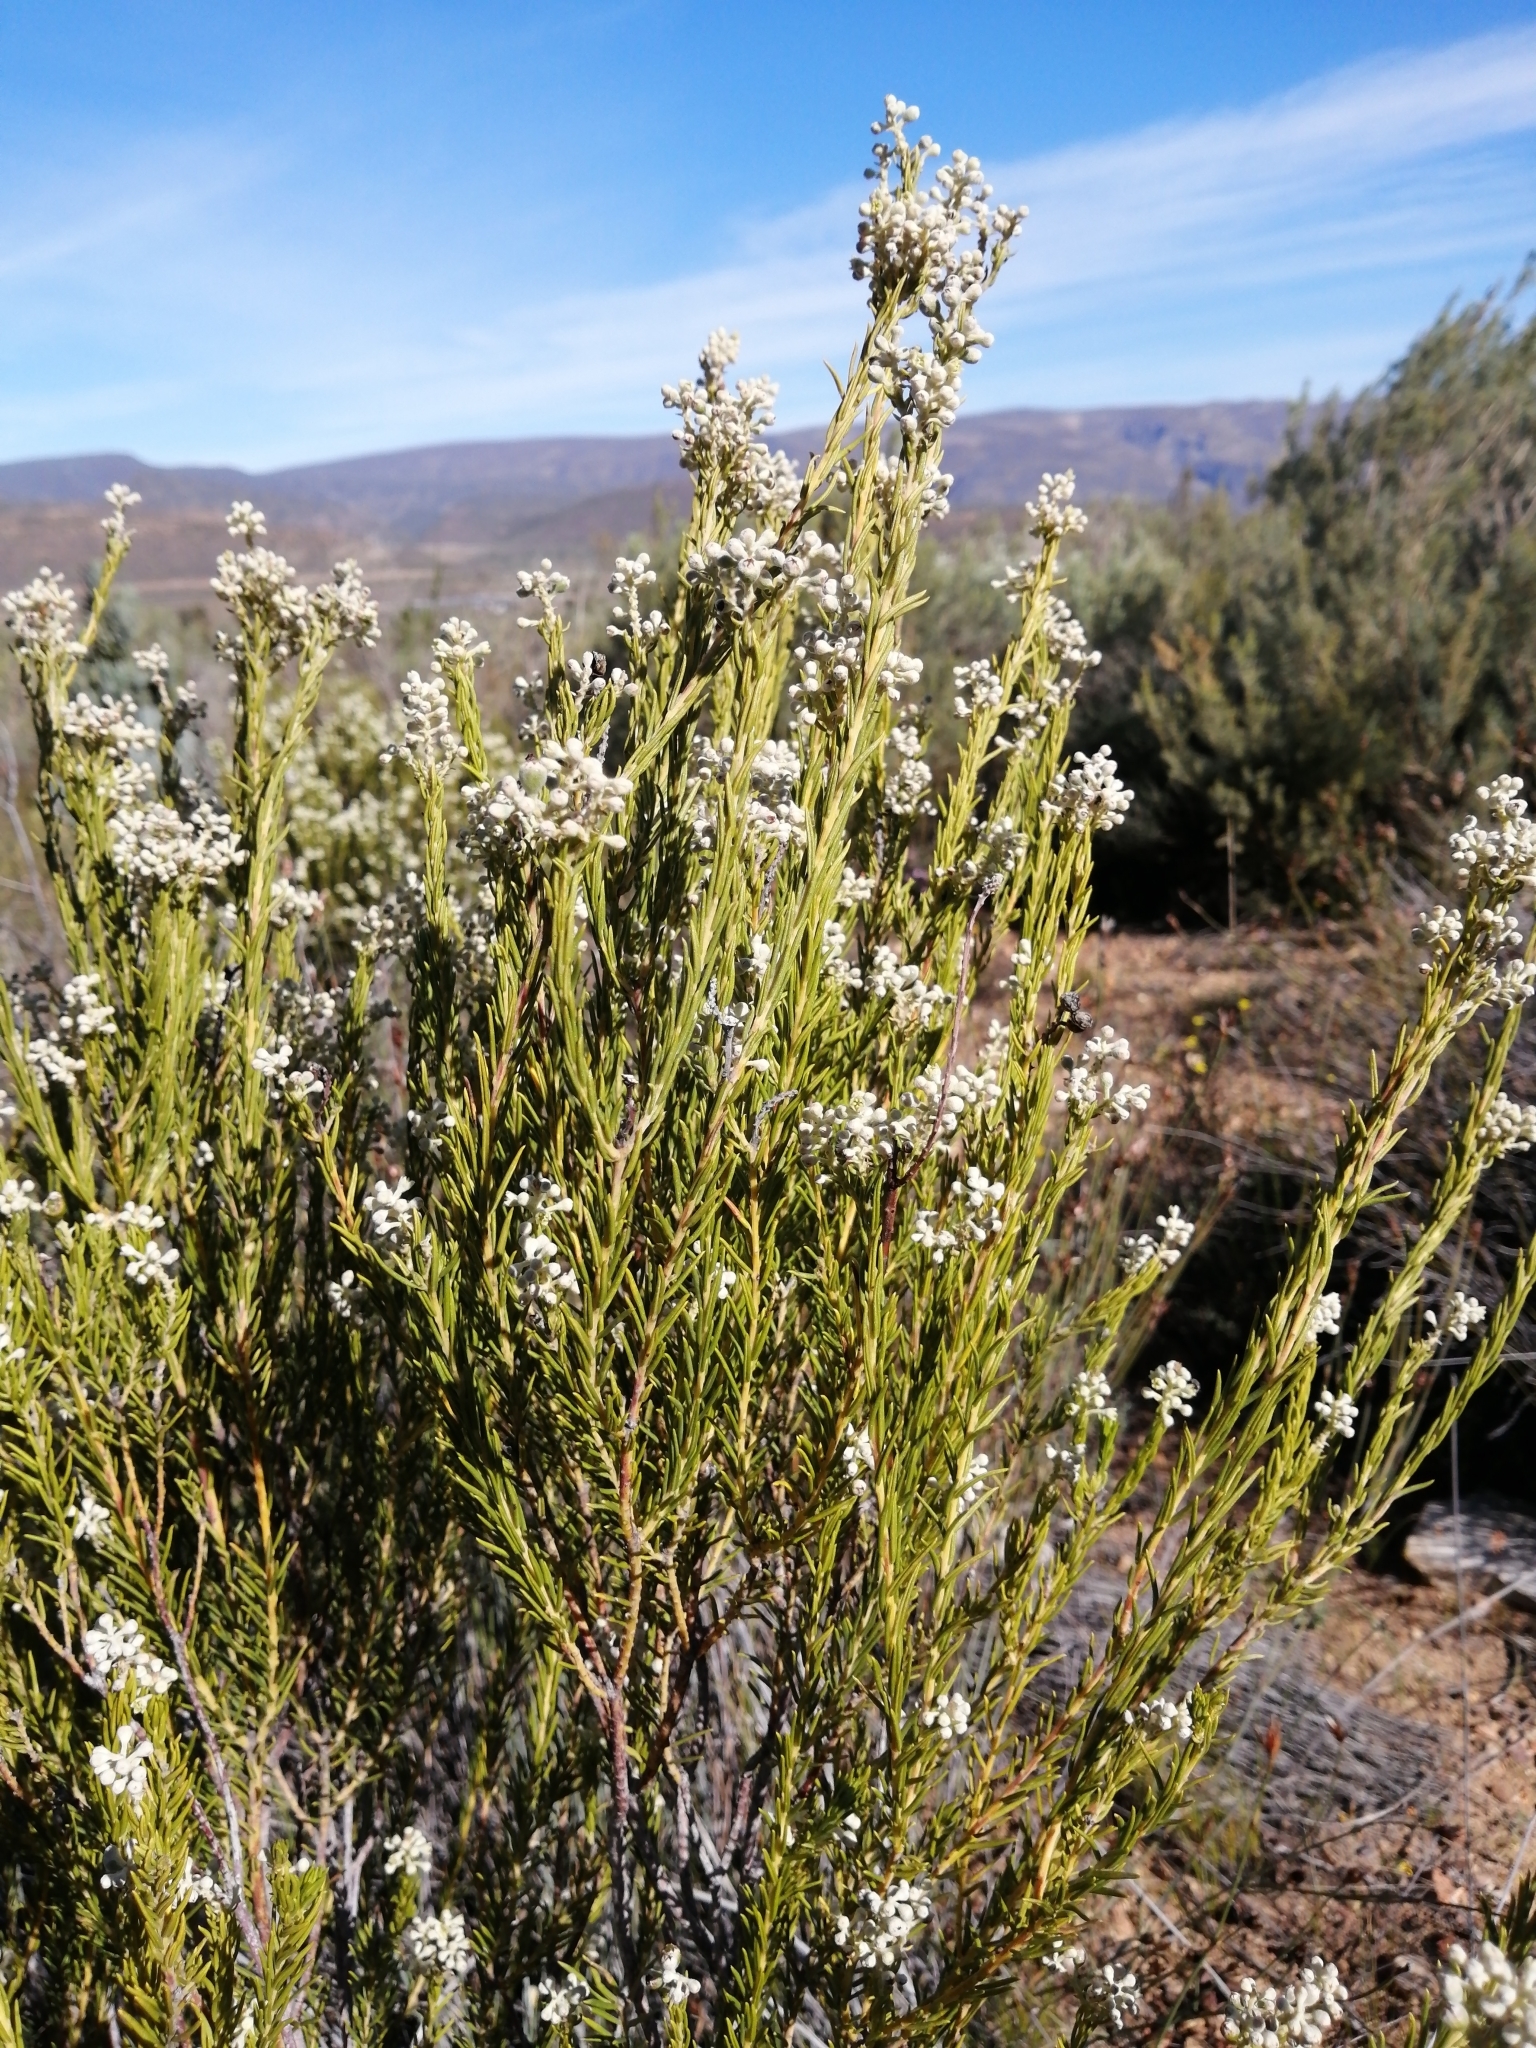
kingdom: Plantae
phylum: Tracheophyta
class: Magnoliopsida
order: Rosales
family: Rhamnaceae
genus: Phylica
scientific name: Phylica rigidifolia
